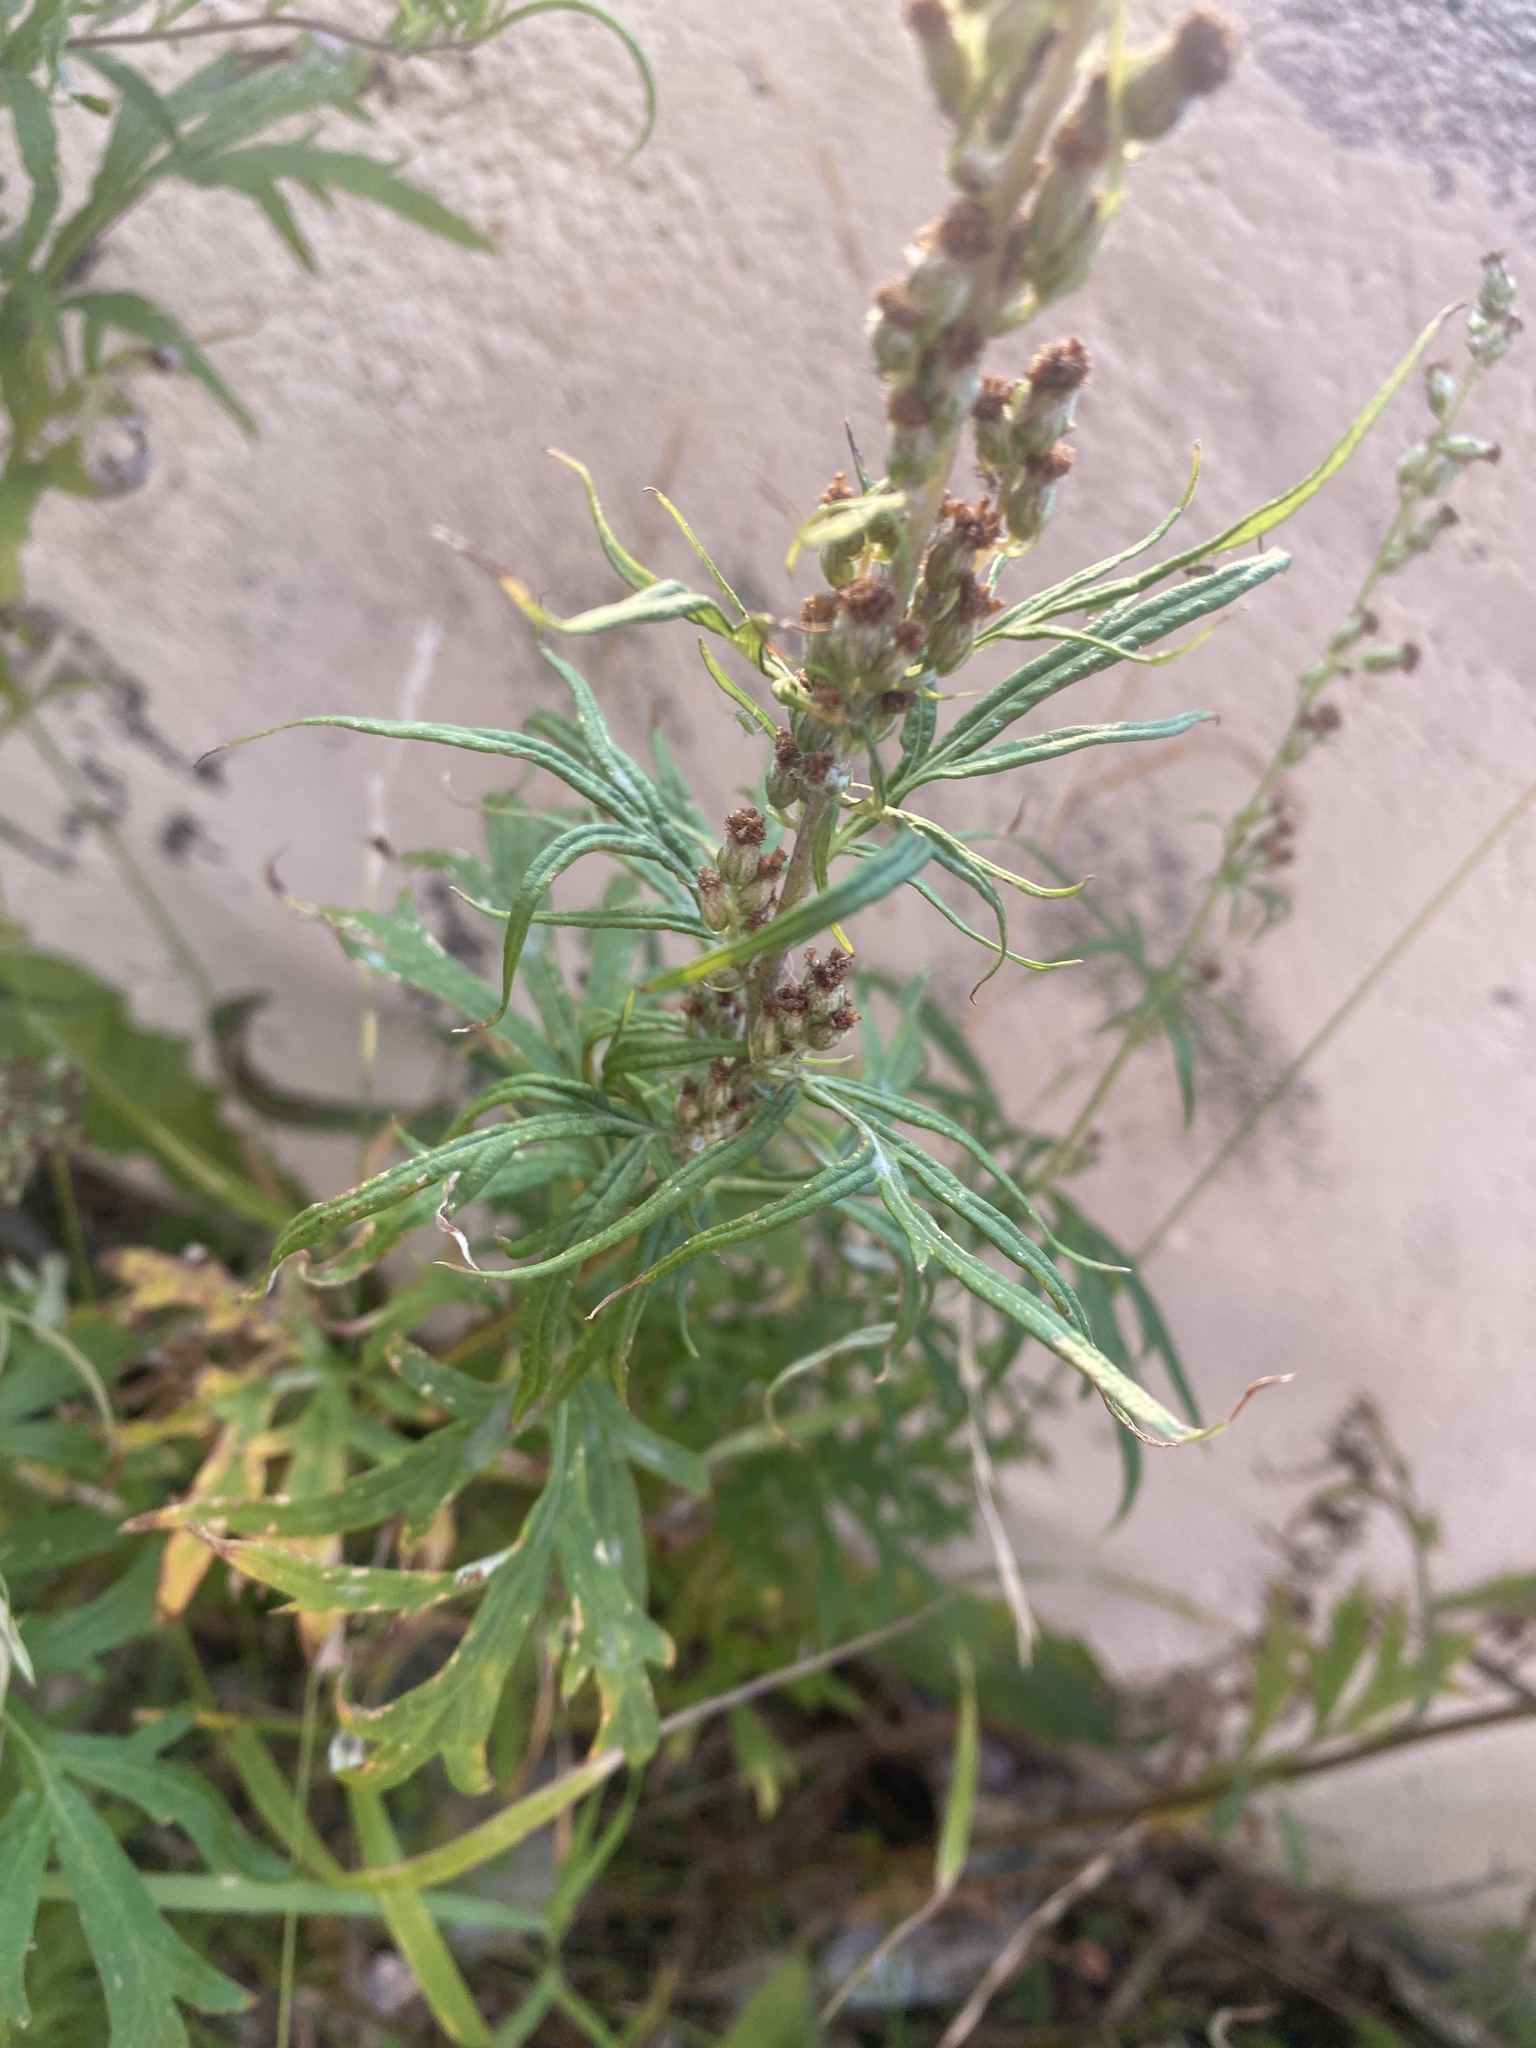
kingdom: Plantae
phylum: Tracheophyta
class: Magnoliopsida
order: Asterales
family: Asteraceae
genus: Artemisia
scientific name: Artemisia vulgaris
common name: Mugwort
